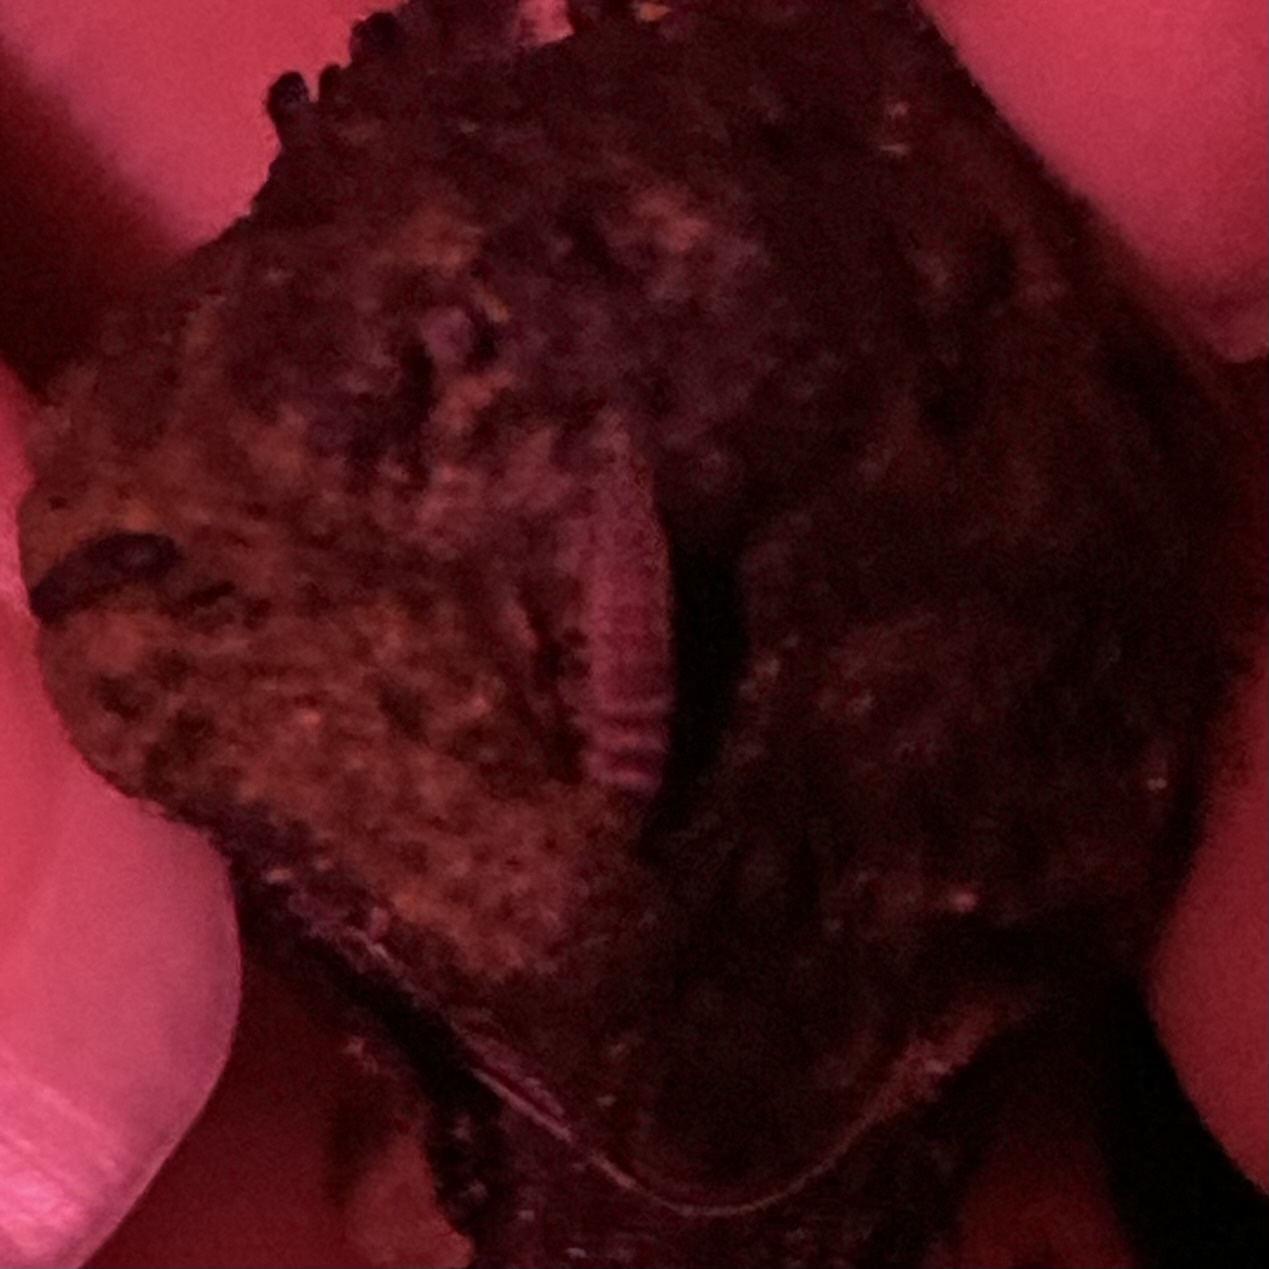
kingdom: Animalia
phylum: Arthropoda
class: Insecta
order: Coleoptera
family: Lampyridae
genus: Micronaspis
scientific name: Micronaspis floridana
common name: Florida intertidal firefly
